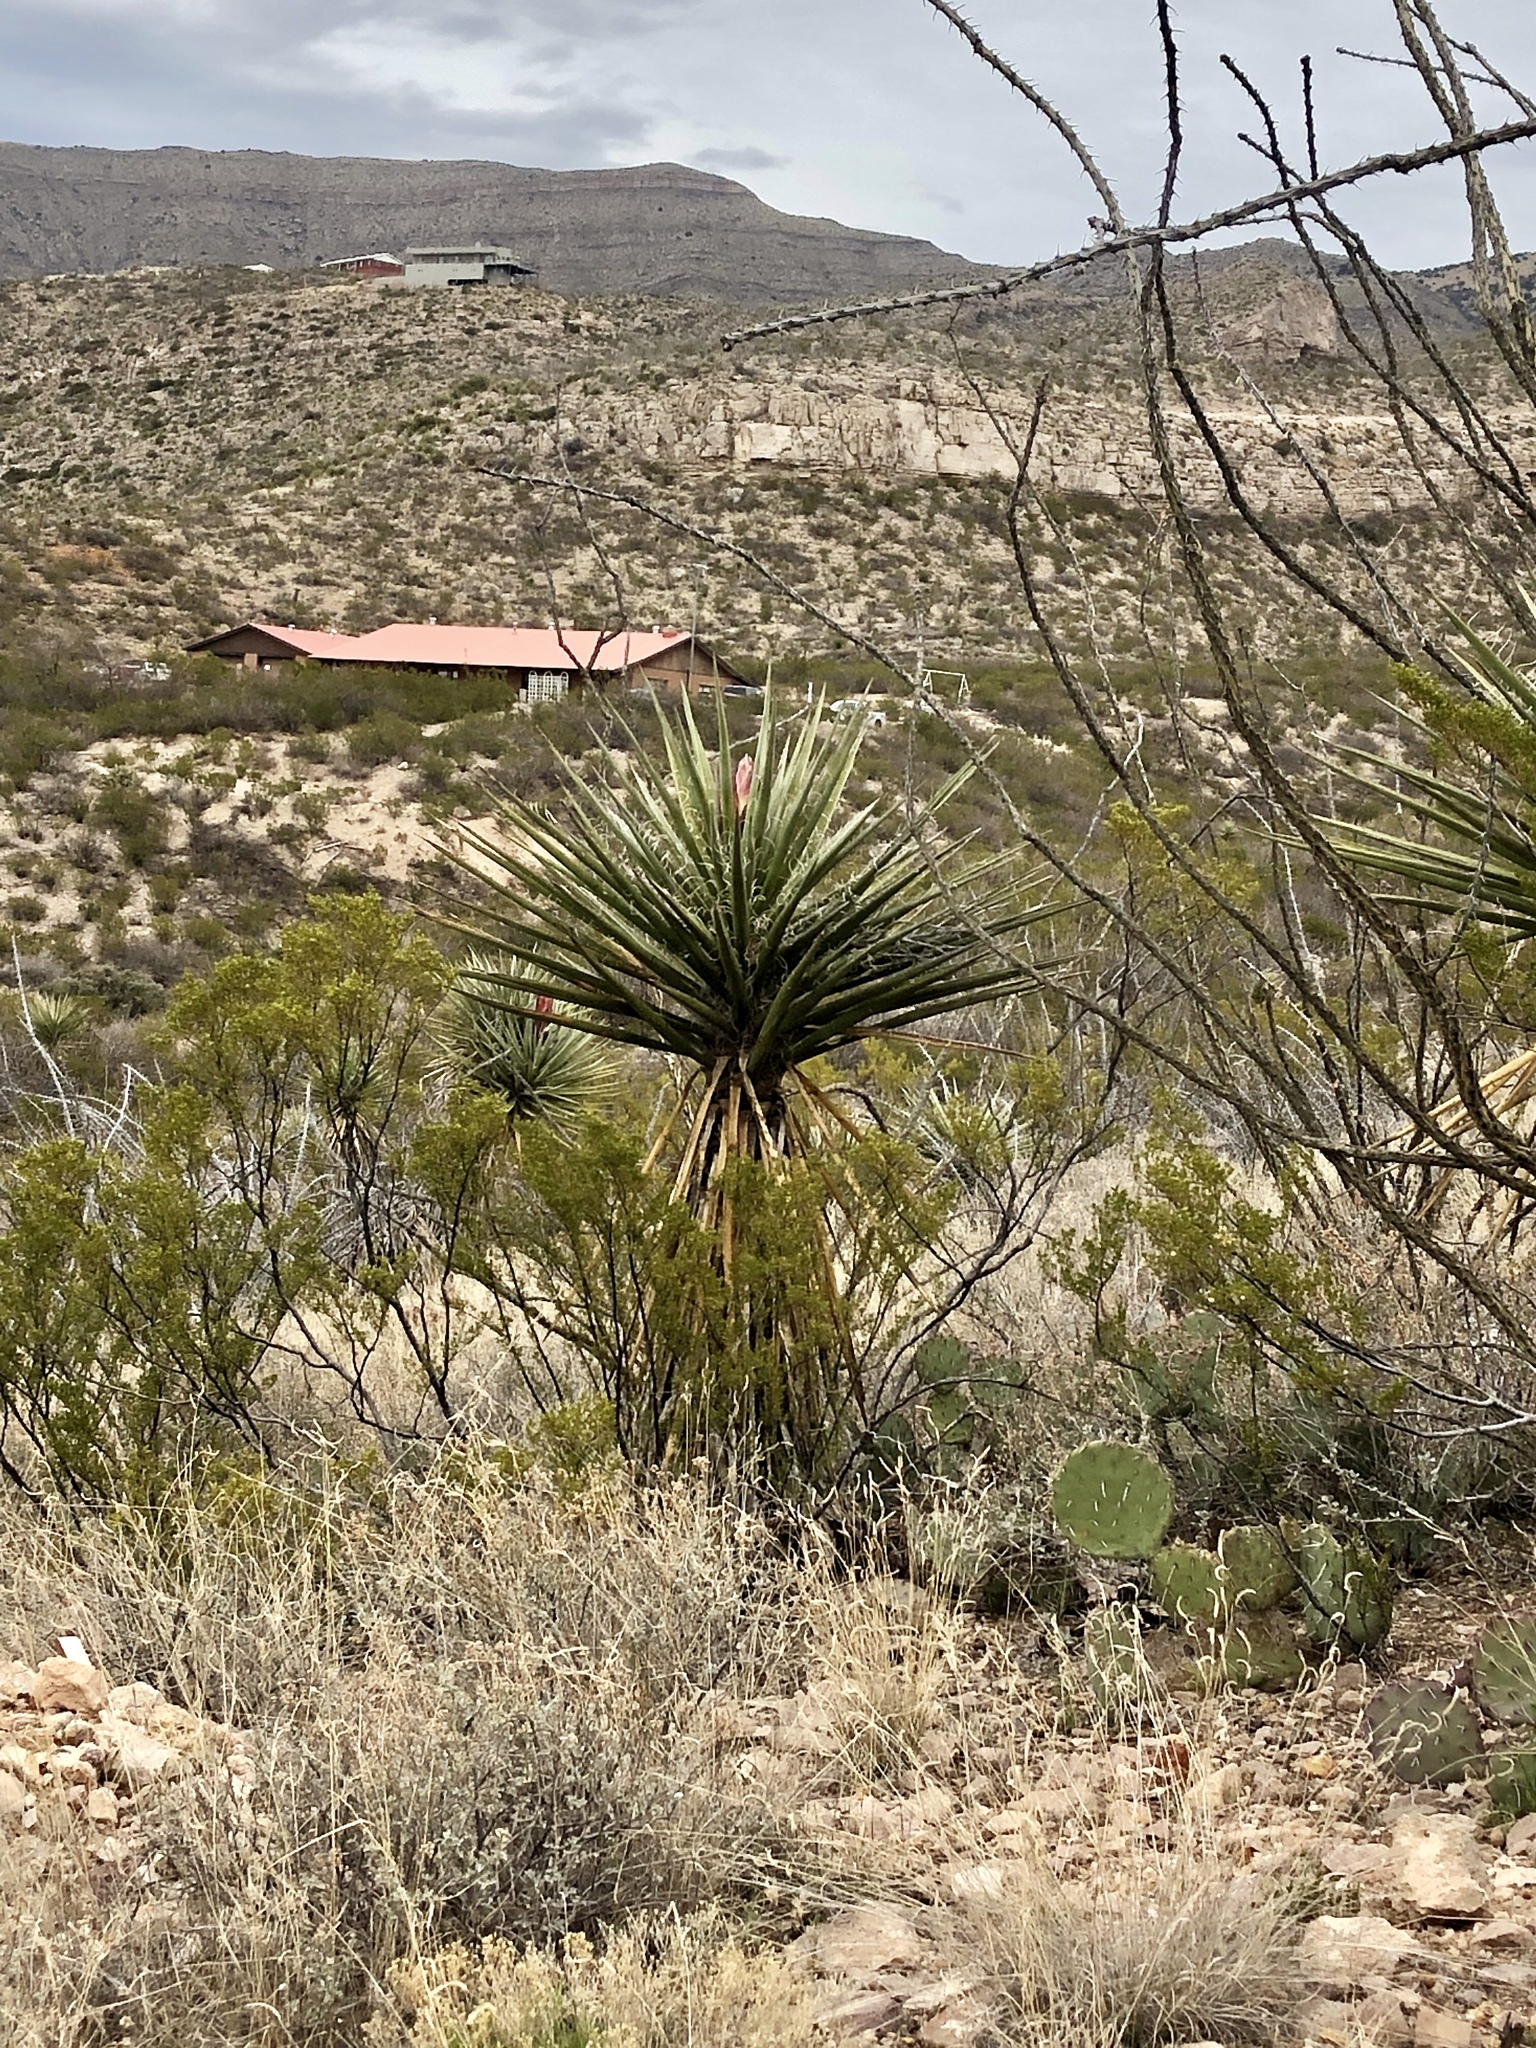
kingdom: Plantae
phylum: Tracheophyta
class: Liliopsida
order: Asparagales
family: Asparagaceae
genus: Yucca
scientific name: Yucca treculiana
